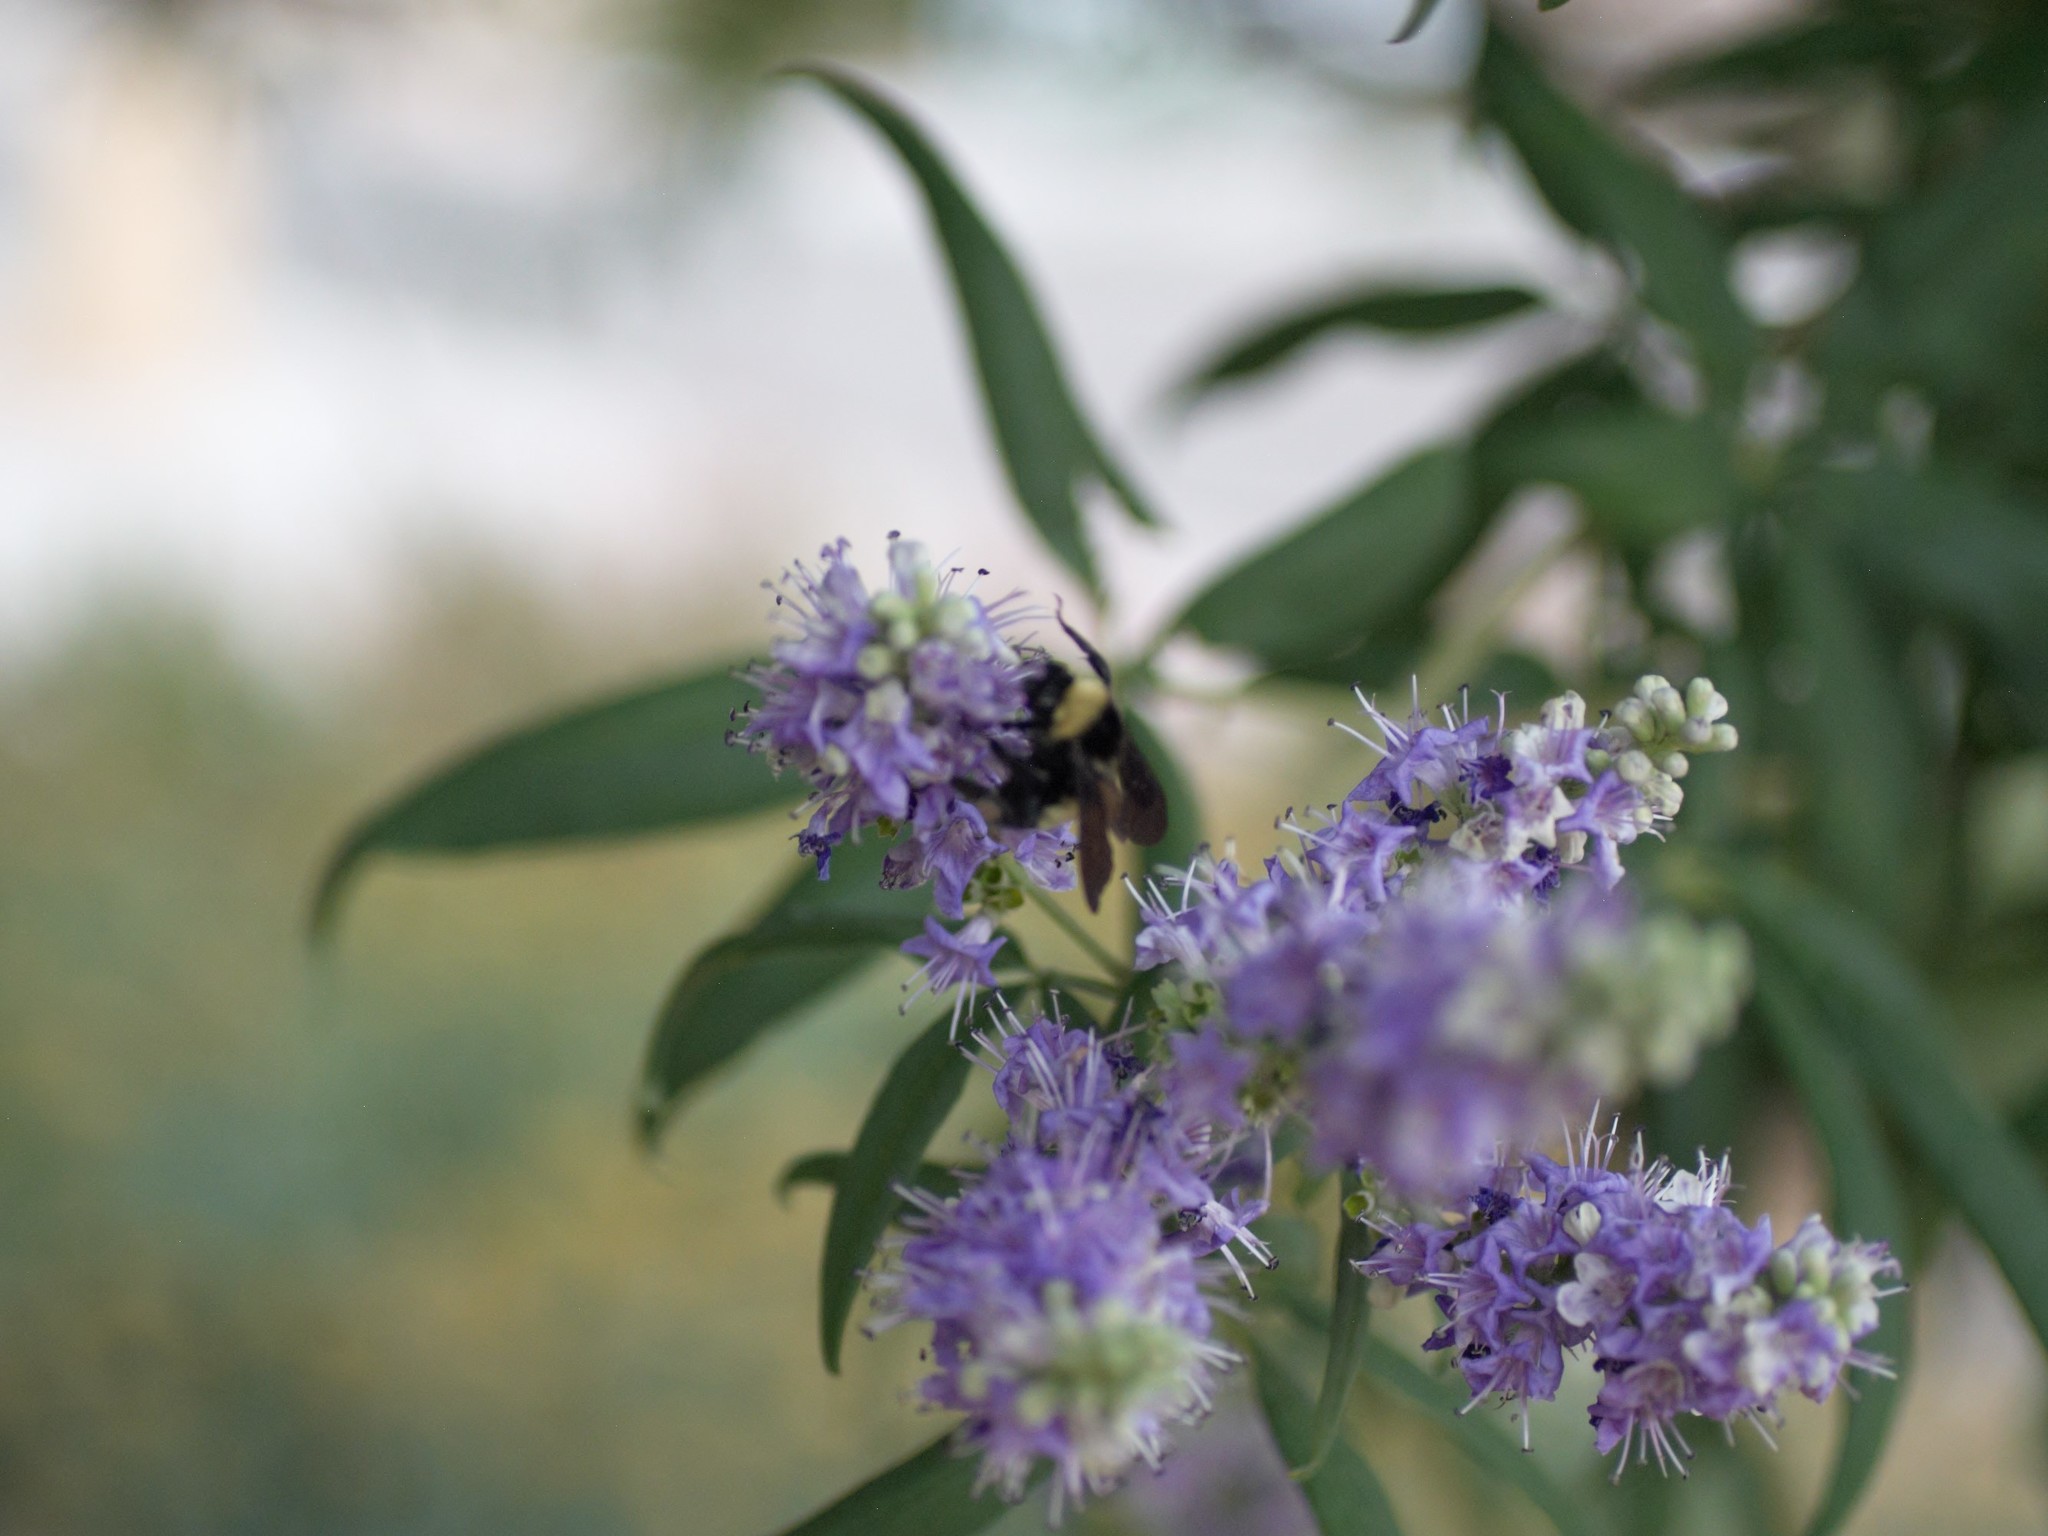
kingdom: Animalia
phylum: Arthropoda
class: Insecta
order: Hymenoptera
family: Apidae
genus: Bombus
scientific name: Bombus pensylvanicus
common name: Bumble bee
